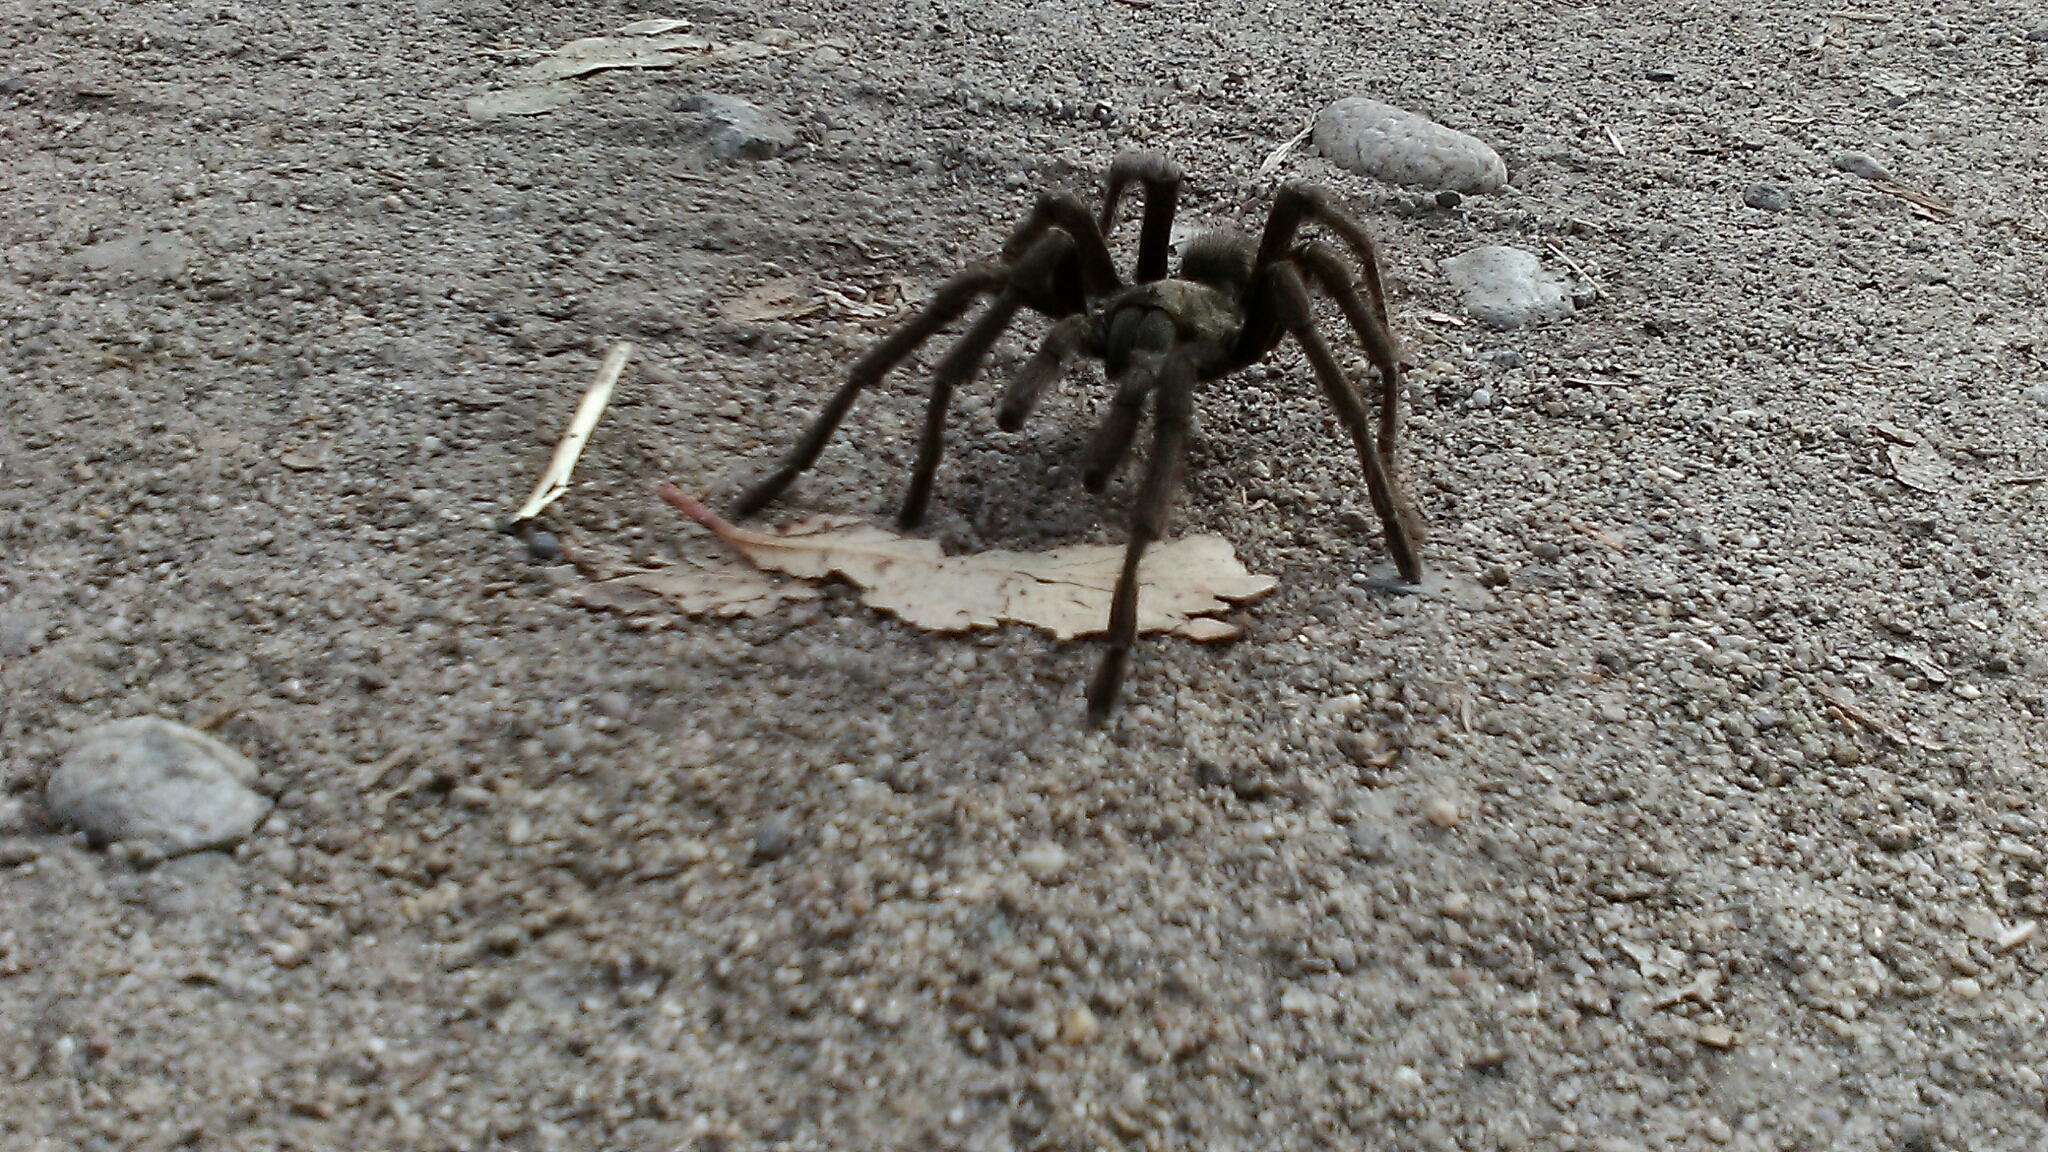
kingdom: Animalia
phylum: Arthropoda
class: Arachnida
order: Araneae
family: Theraphosidae
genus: Aphonopelma
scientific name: Aphonopelma eutylenum
